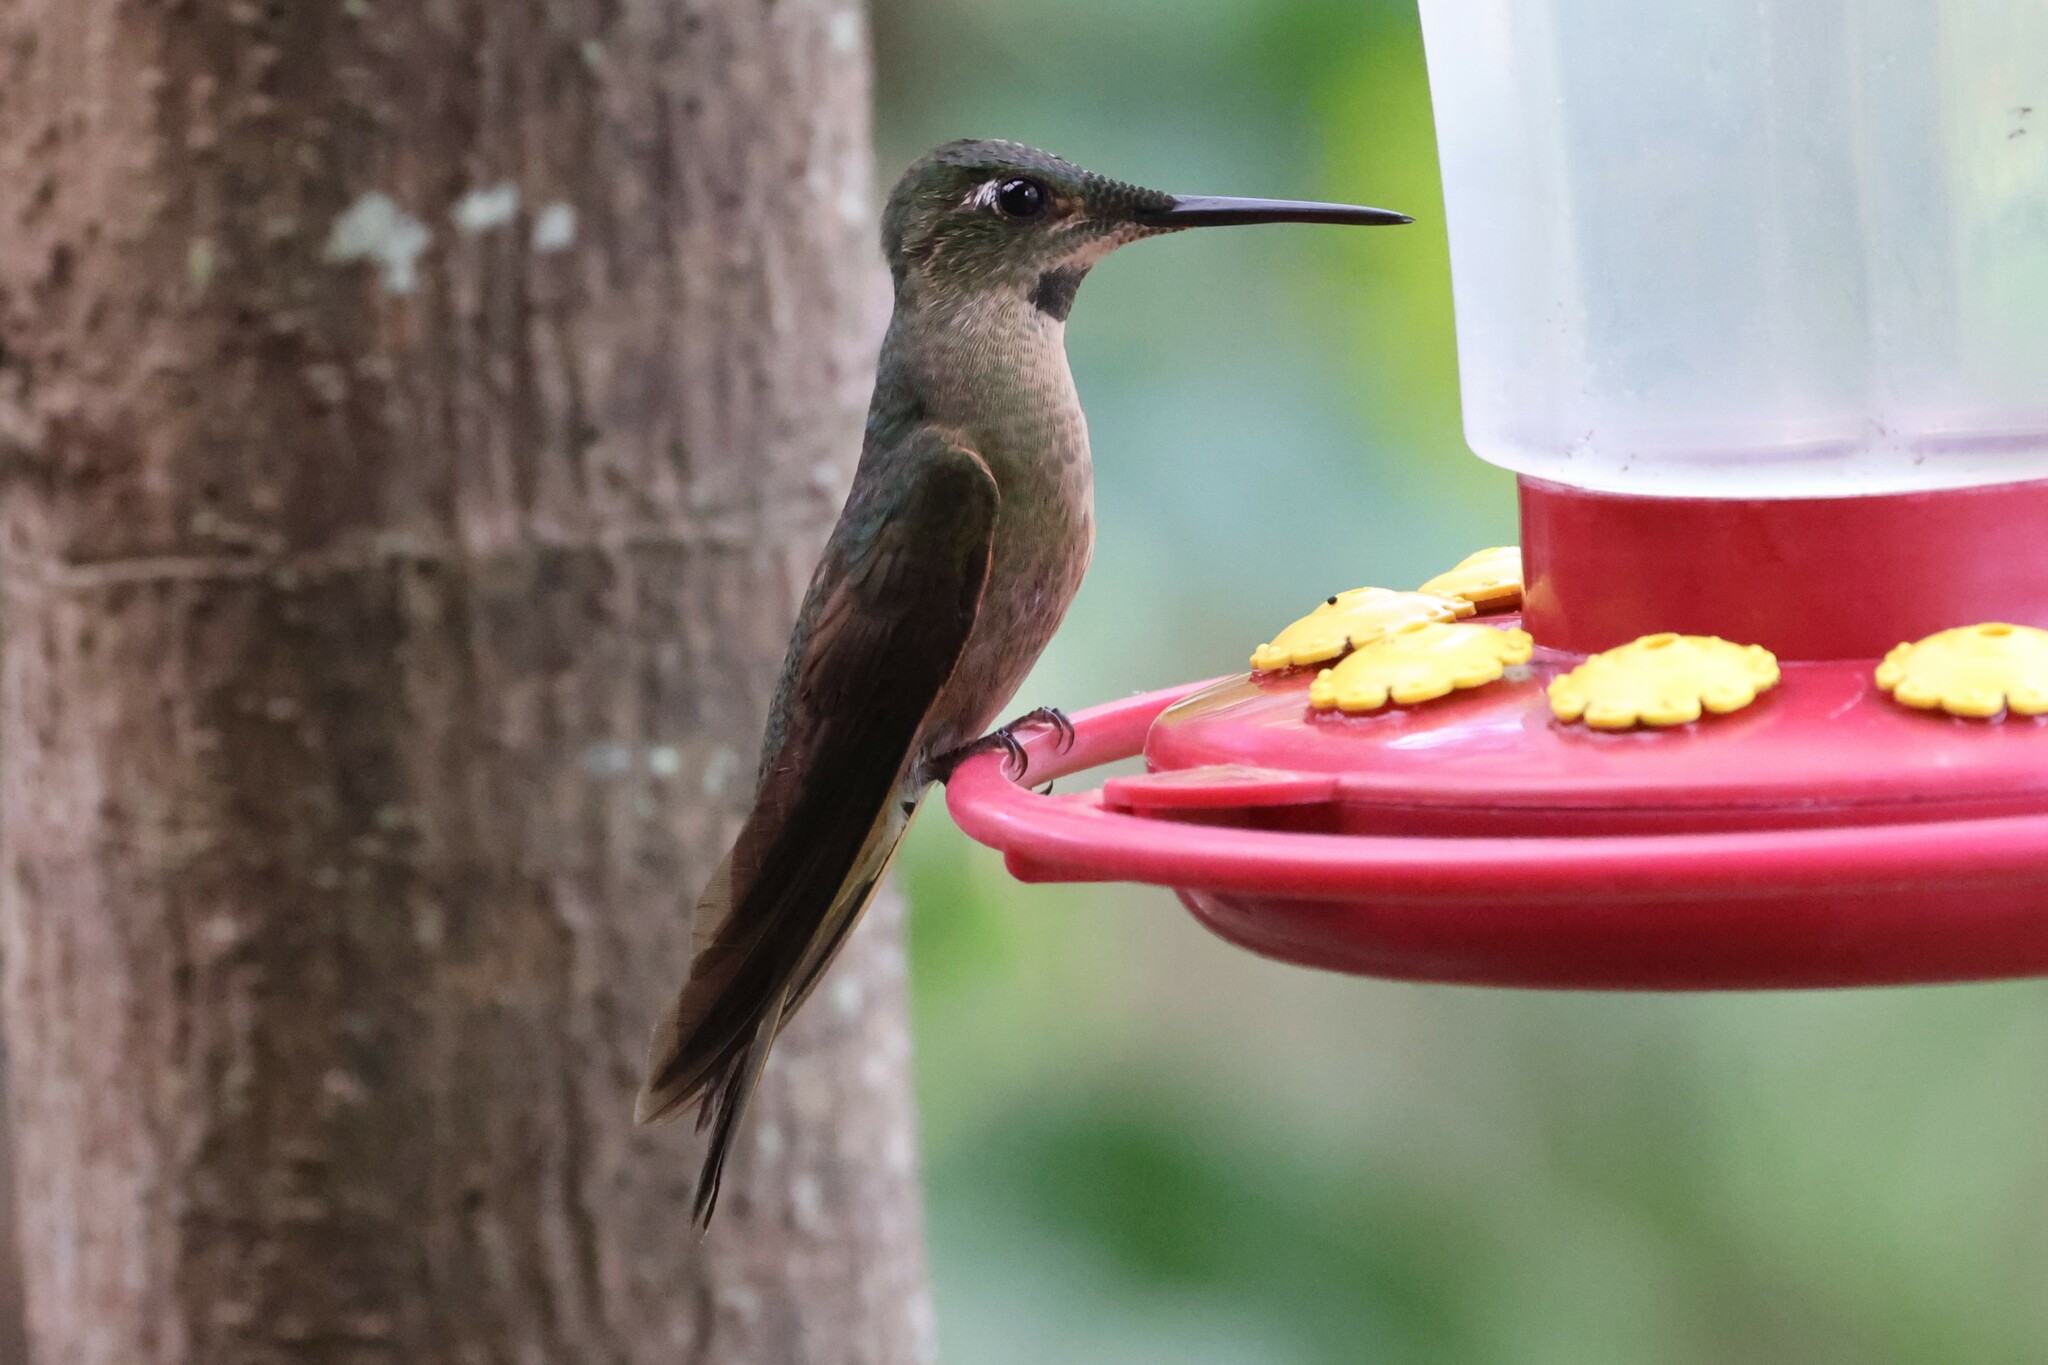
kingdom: Animalia
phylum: Chordata
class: Aves
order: Apodiformes
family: Trochilidae
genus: Heliodoxa
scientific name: Heliodoxa rubinoides
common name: Fawn-breasted brilliant
